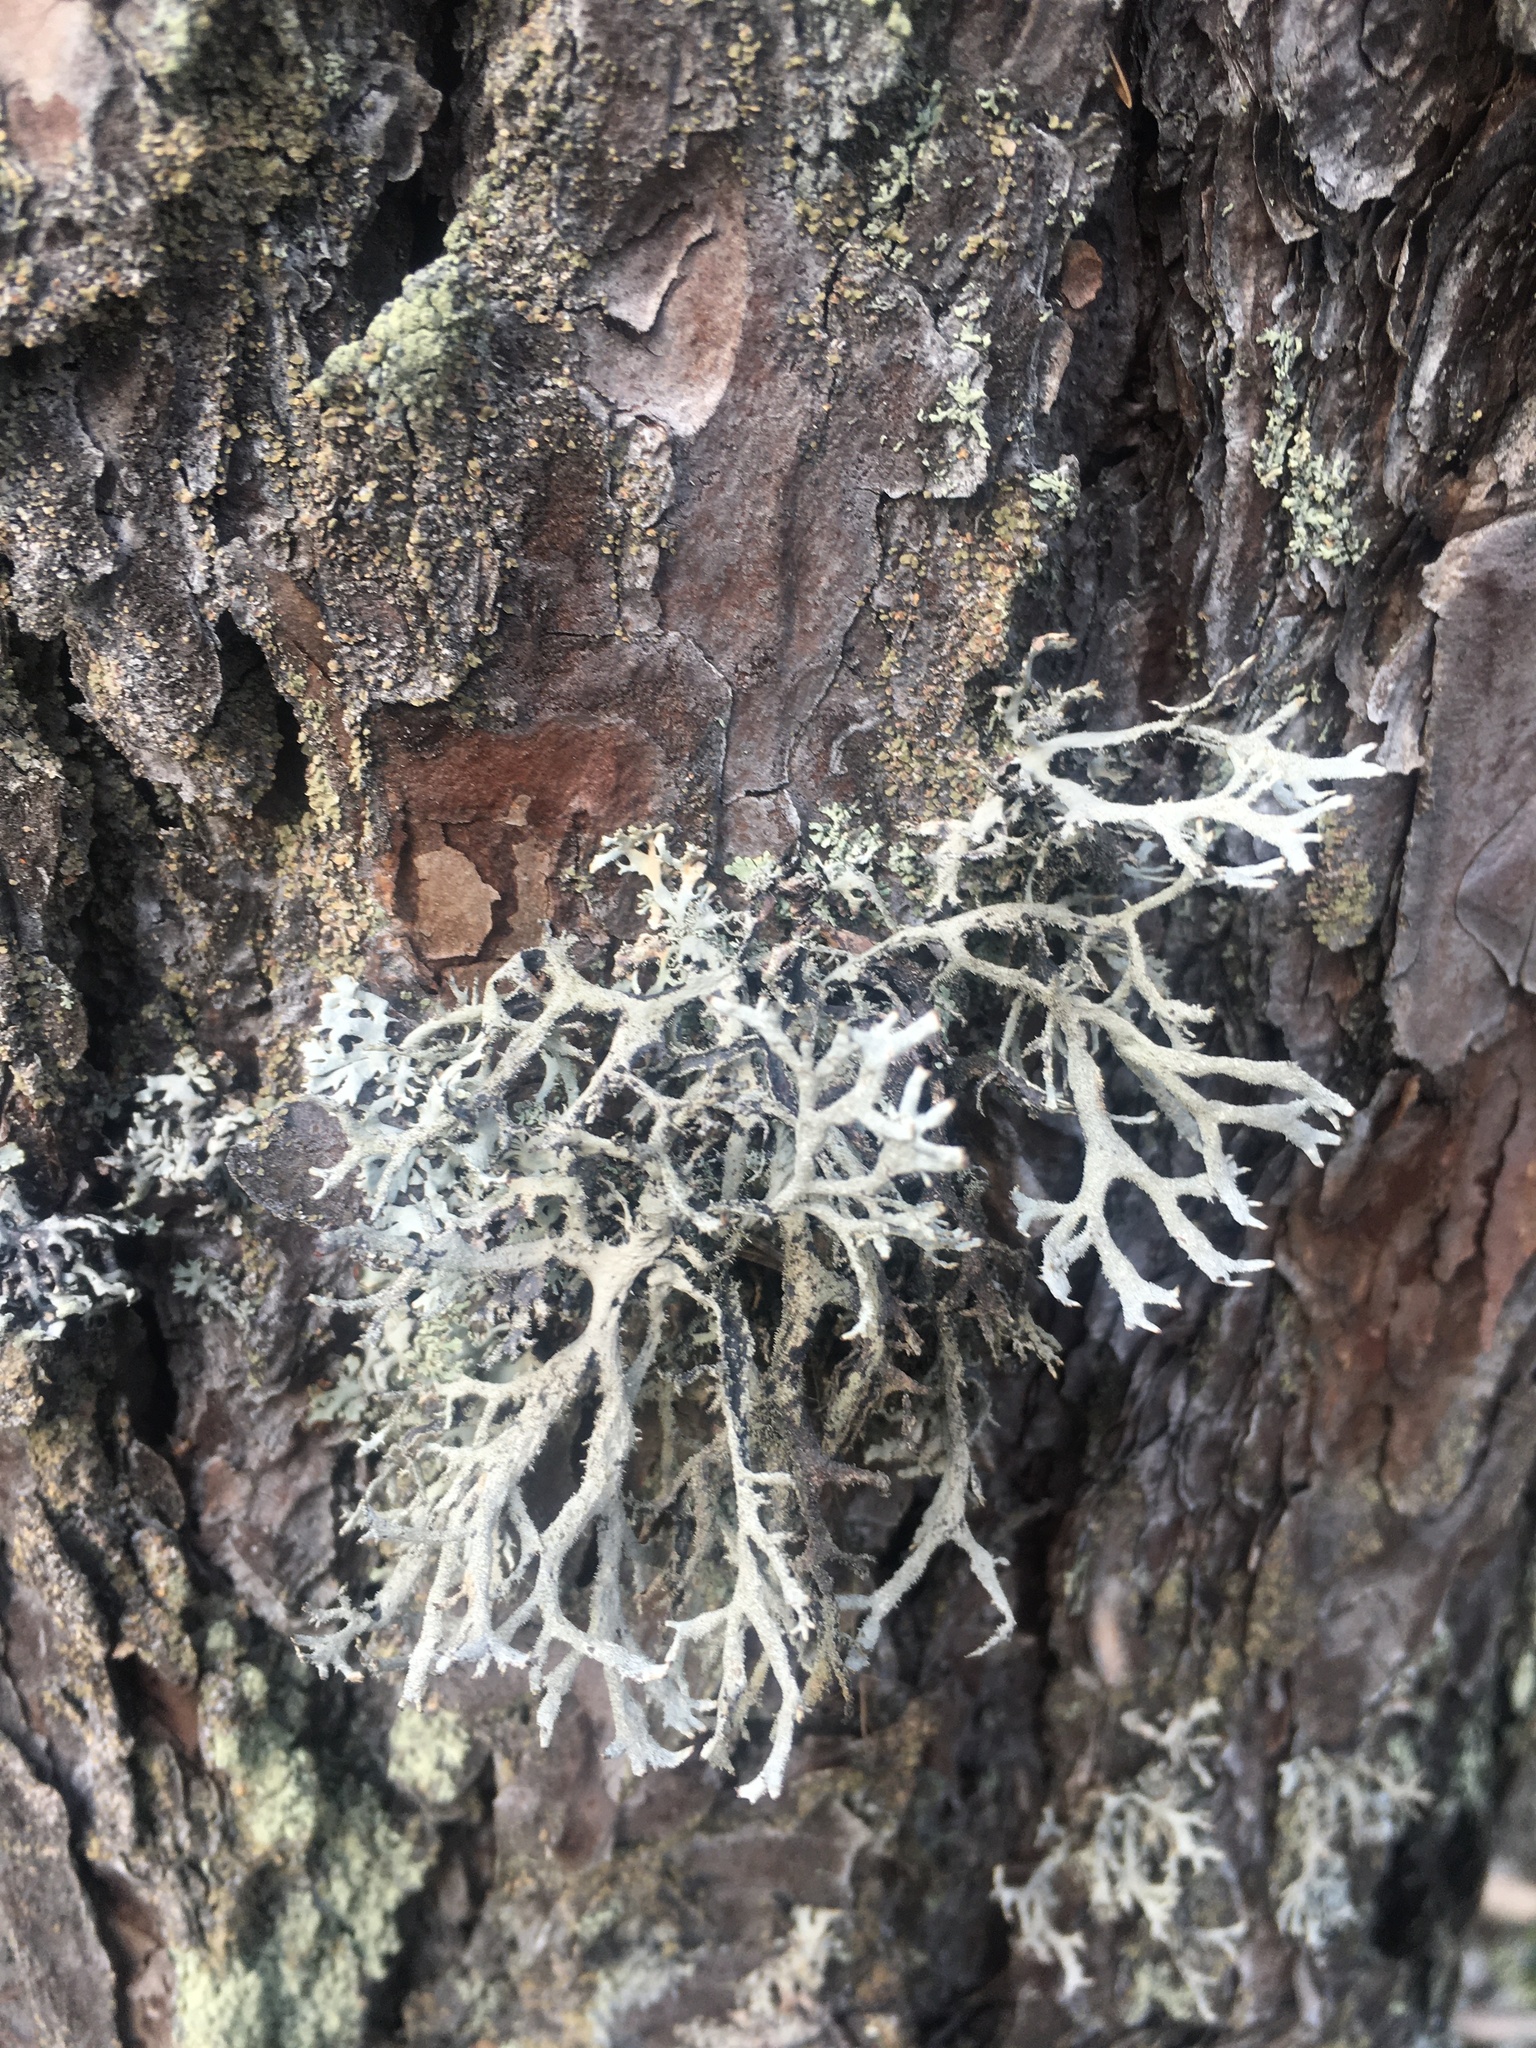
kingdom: Fungi
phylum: Ascomycota
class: Lecanoromycetes
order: Lecanorales
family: Parmeliaceae
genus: Pseudevernia
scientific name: Pseudevernia furfuracea
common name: Tree moss
